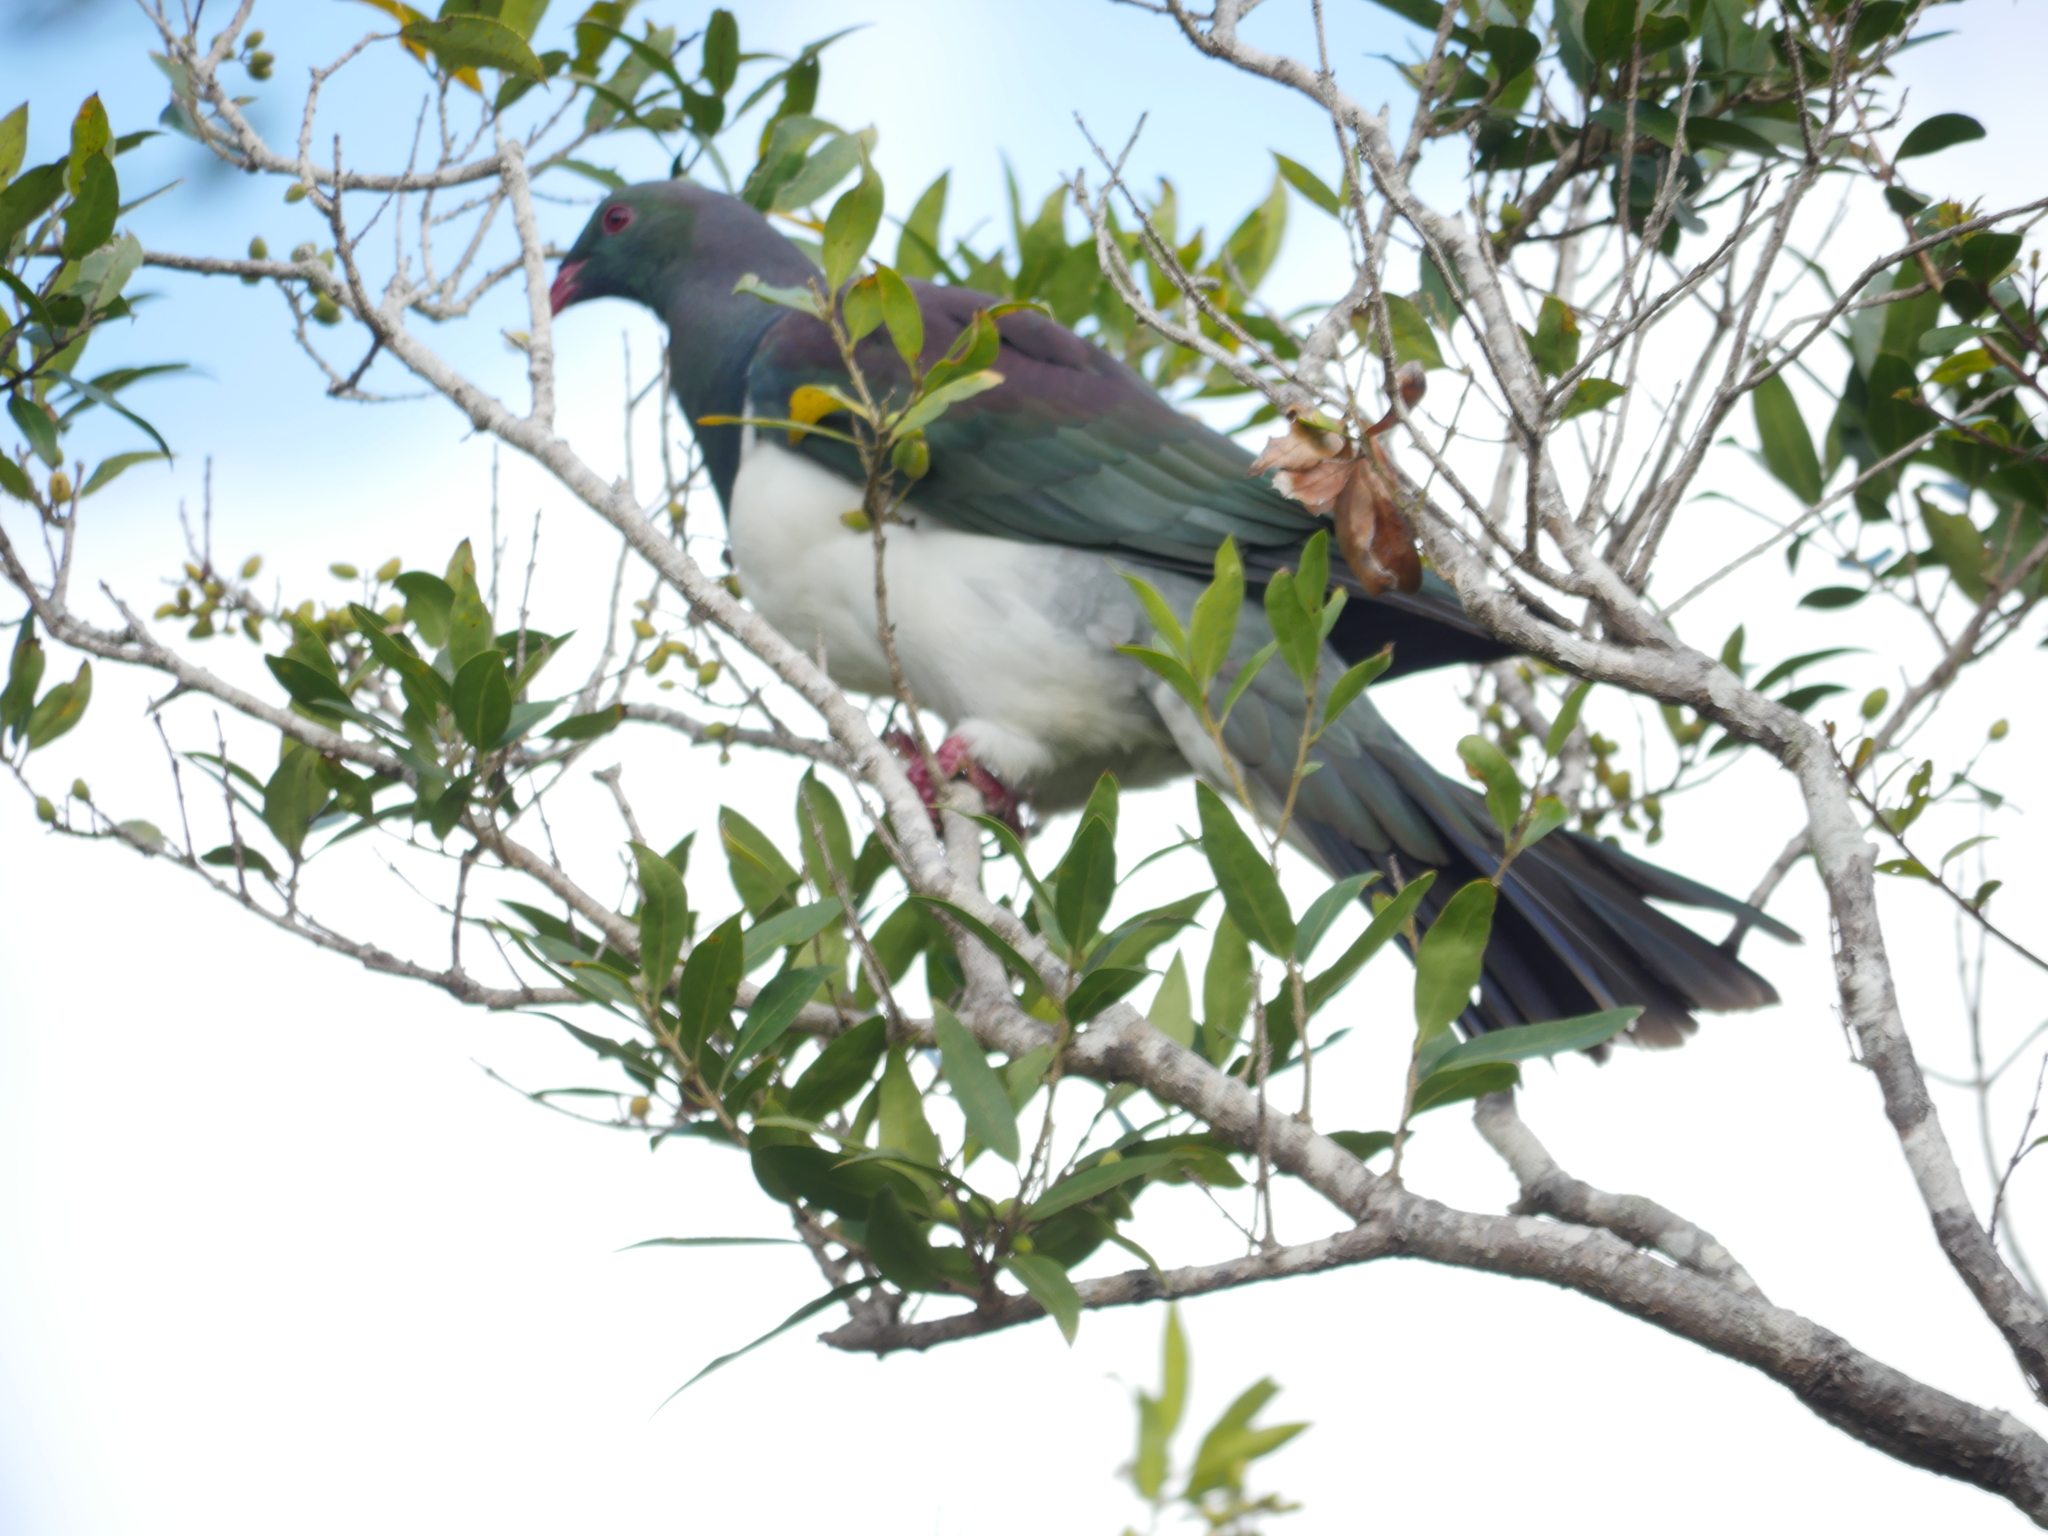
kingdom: Animalia
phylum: Chordata
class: Aves
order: Columbiformes
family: Columbidae
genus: Hemiphaga
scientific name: Hemiphaga novaeseelandiae
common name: New zealand pigeon
